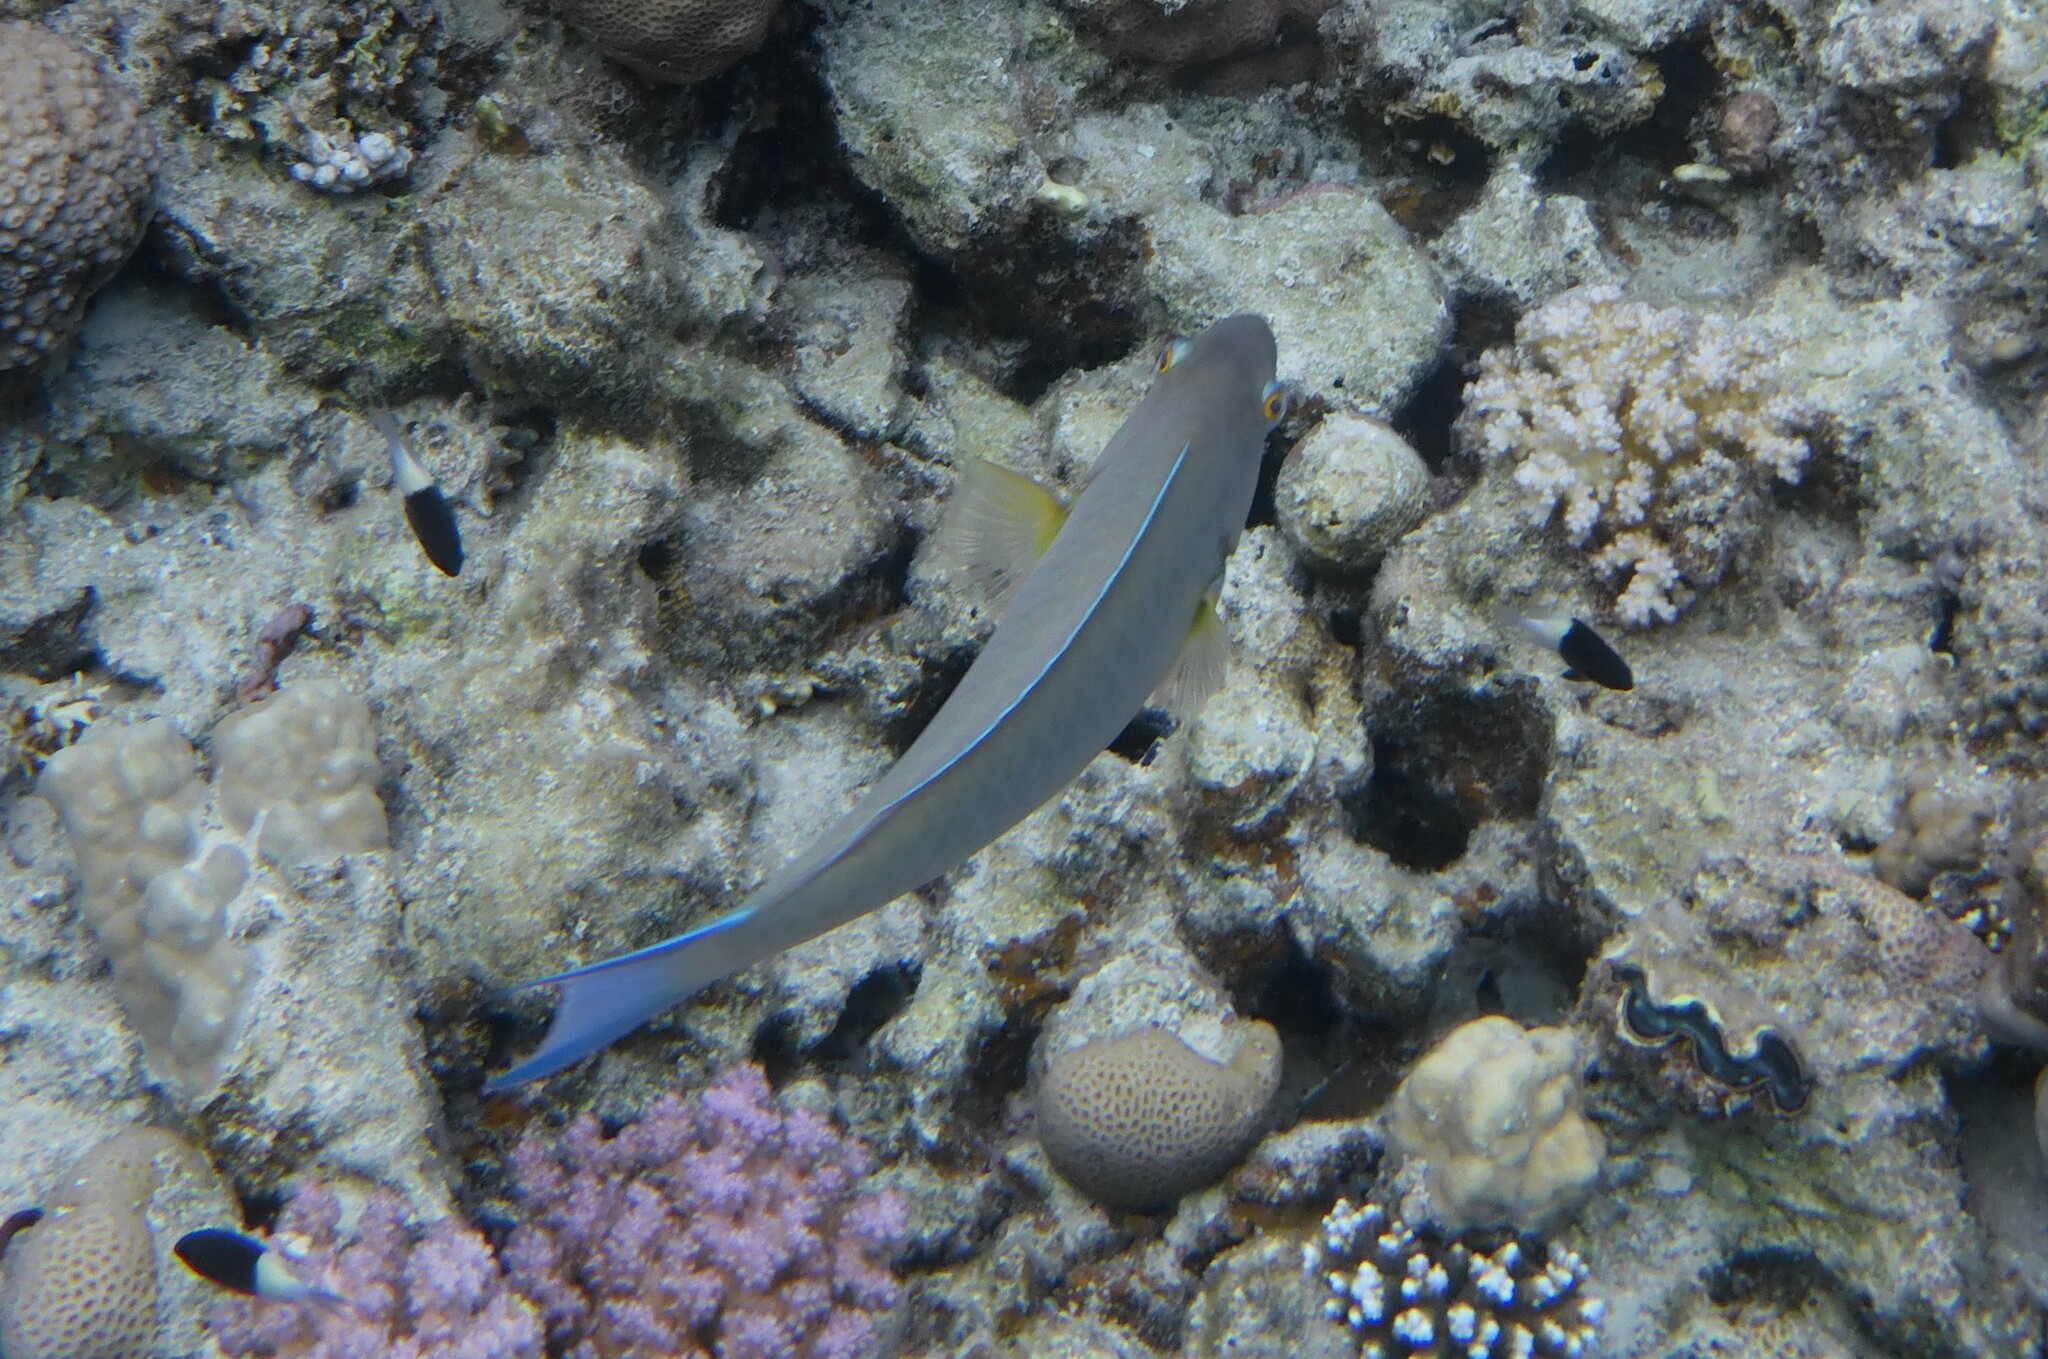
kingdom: Animalia
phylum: Chordata
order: Perciformes
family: Scaridae
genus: Hipposcarus
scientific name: Hipposcarus harid
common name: Candelamoa parrotfish
